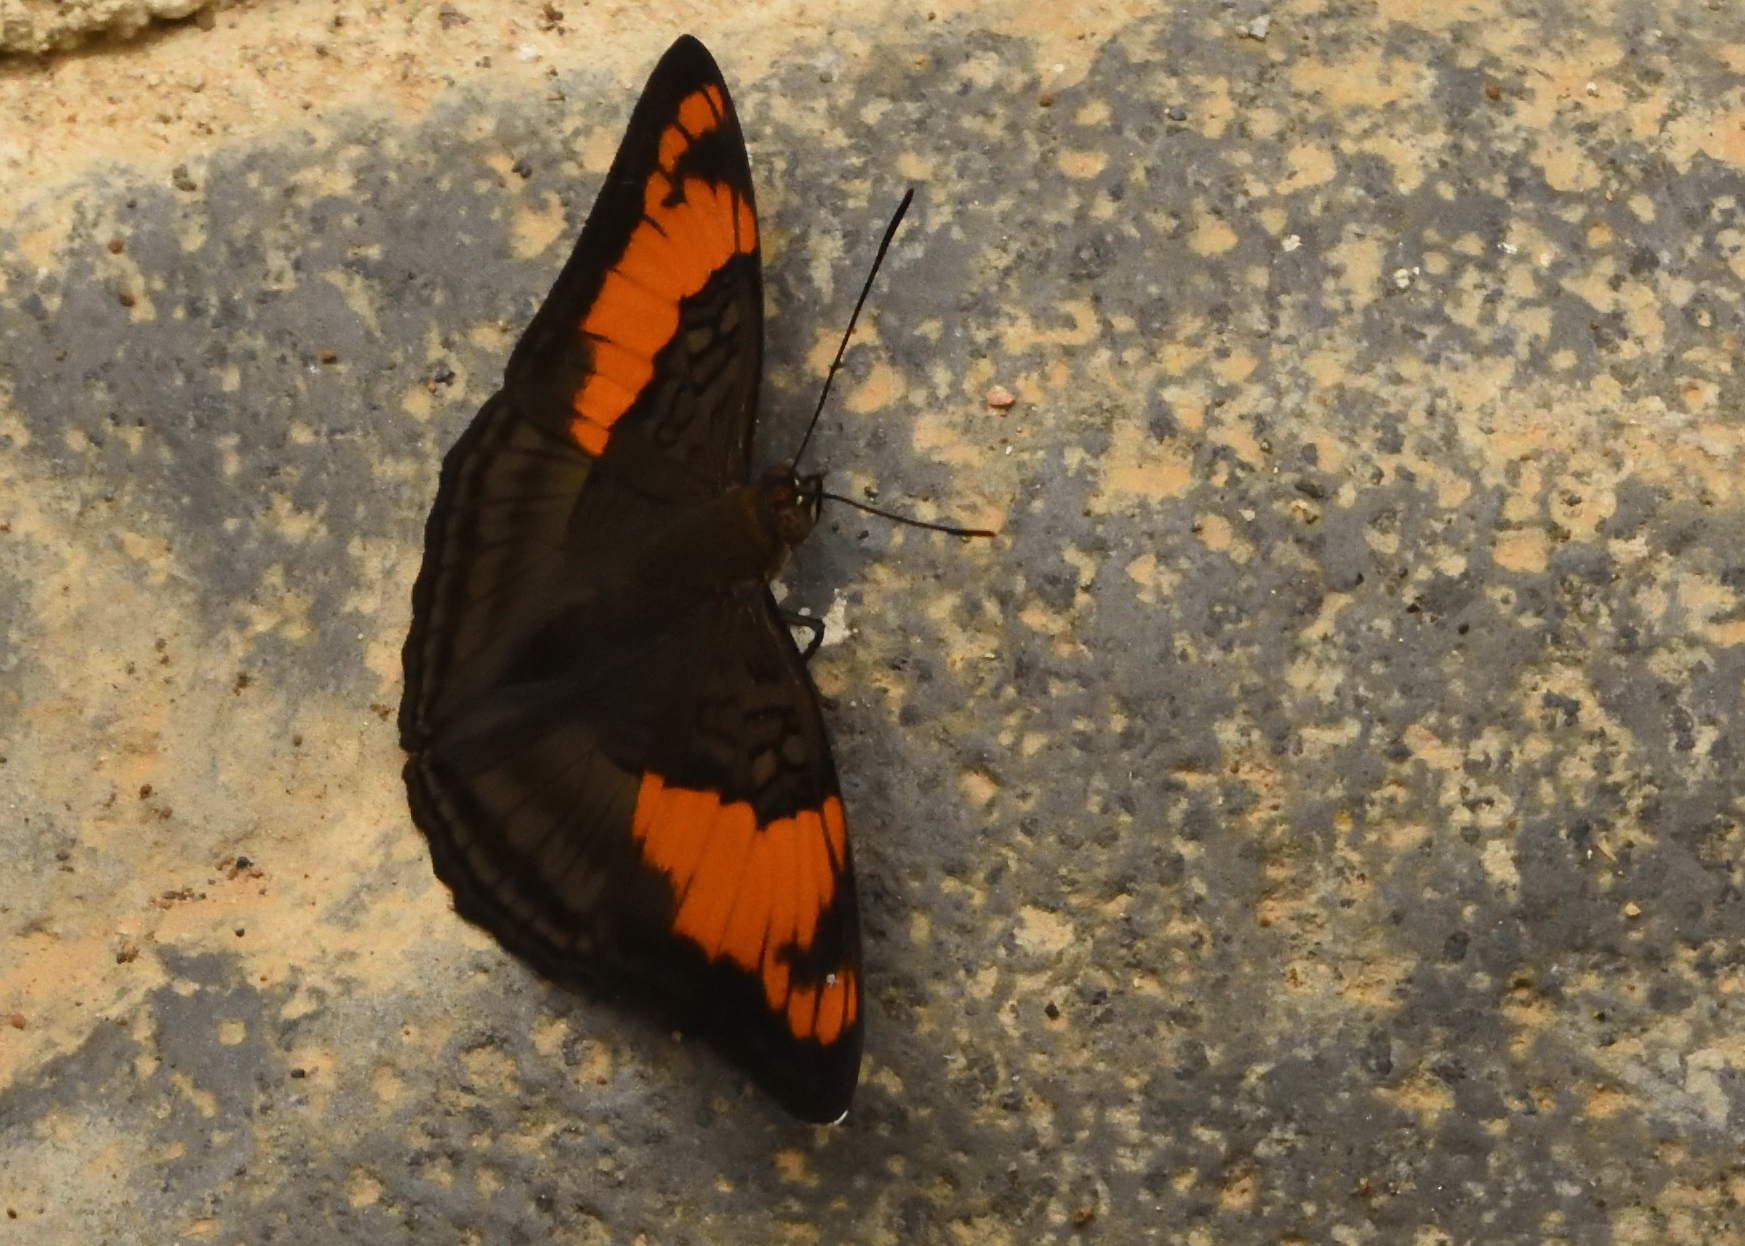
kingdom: Animalia
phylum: Arthropoda
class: Insecta
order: Lepidoptera
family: Nymphalidae
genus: Limenitis
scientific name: Limenitis mesentina
